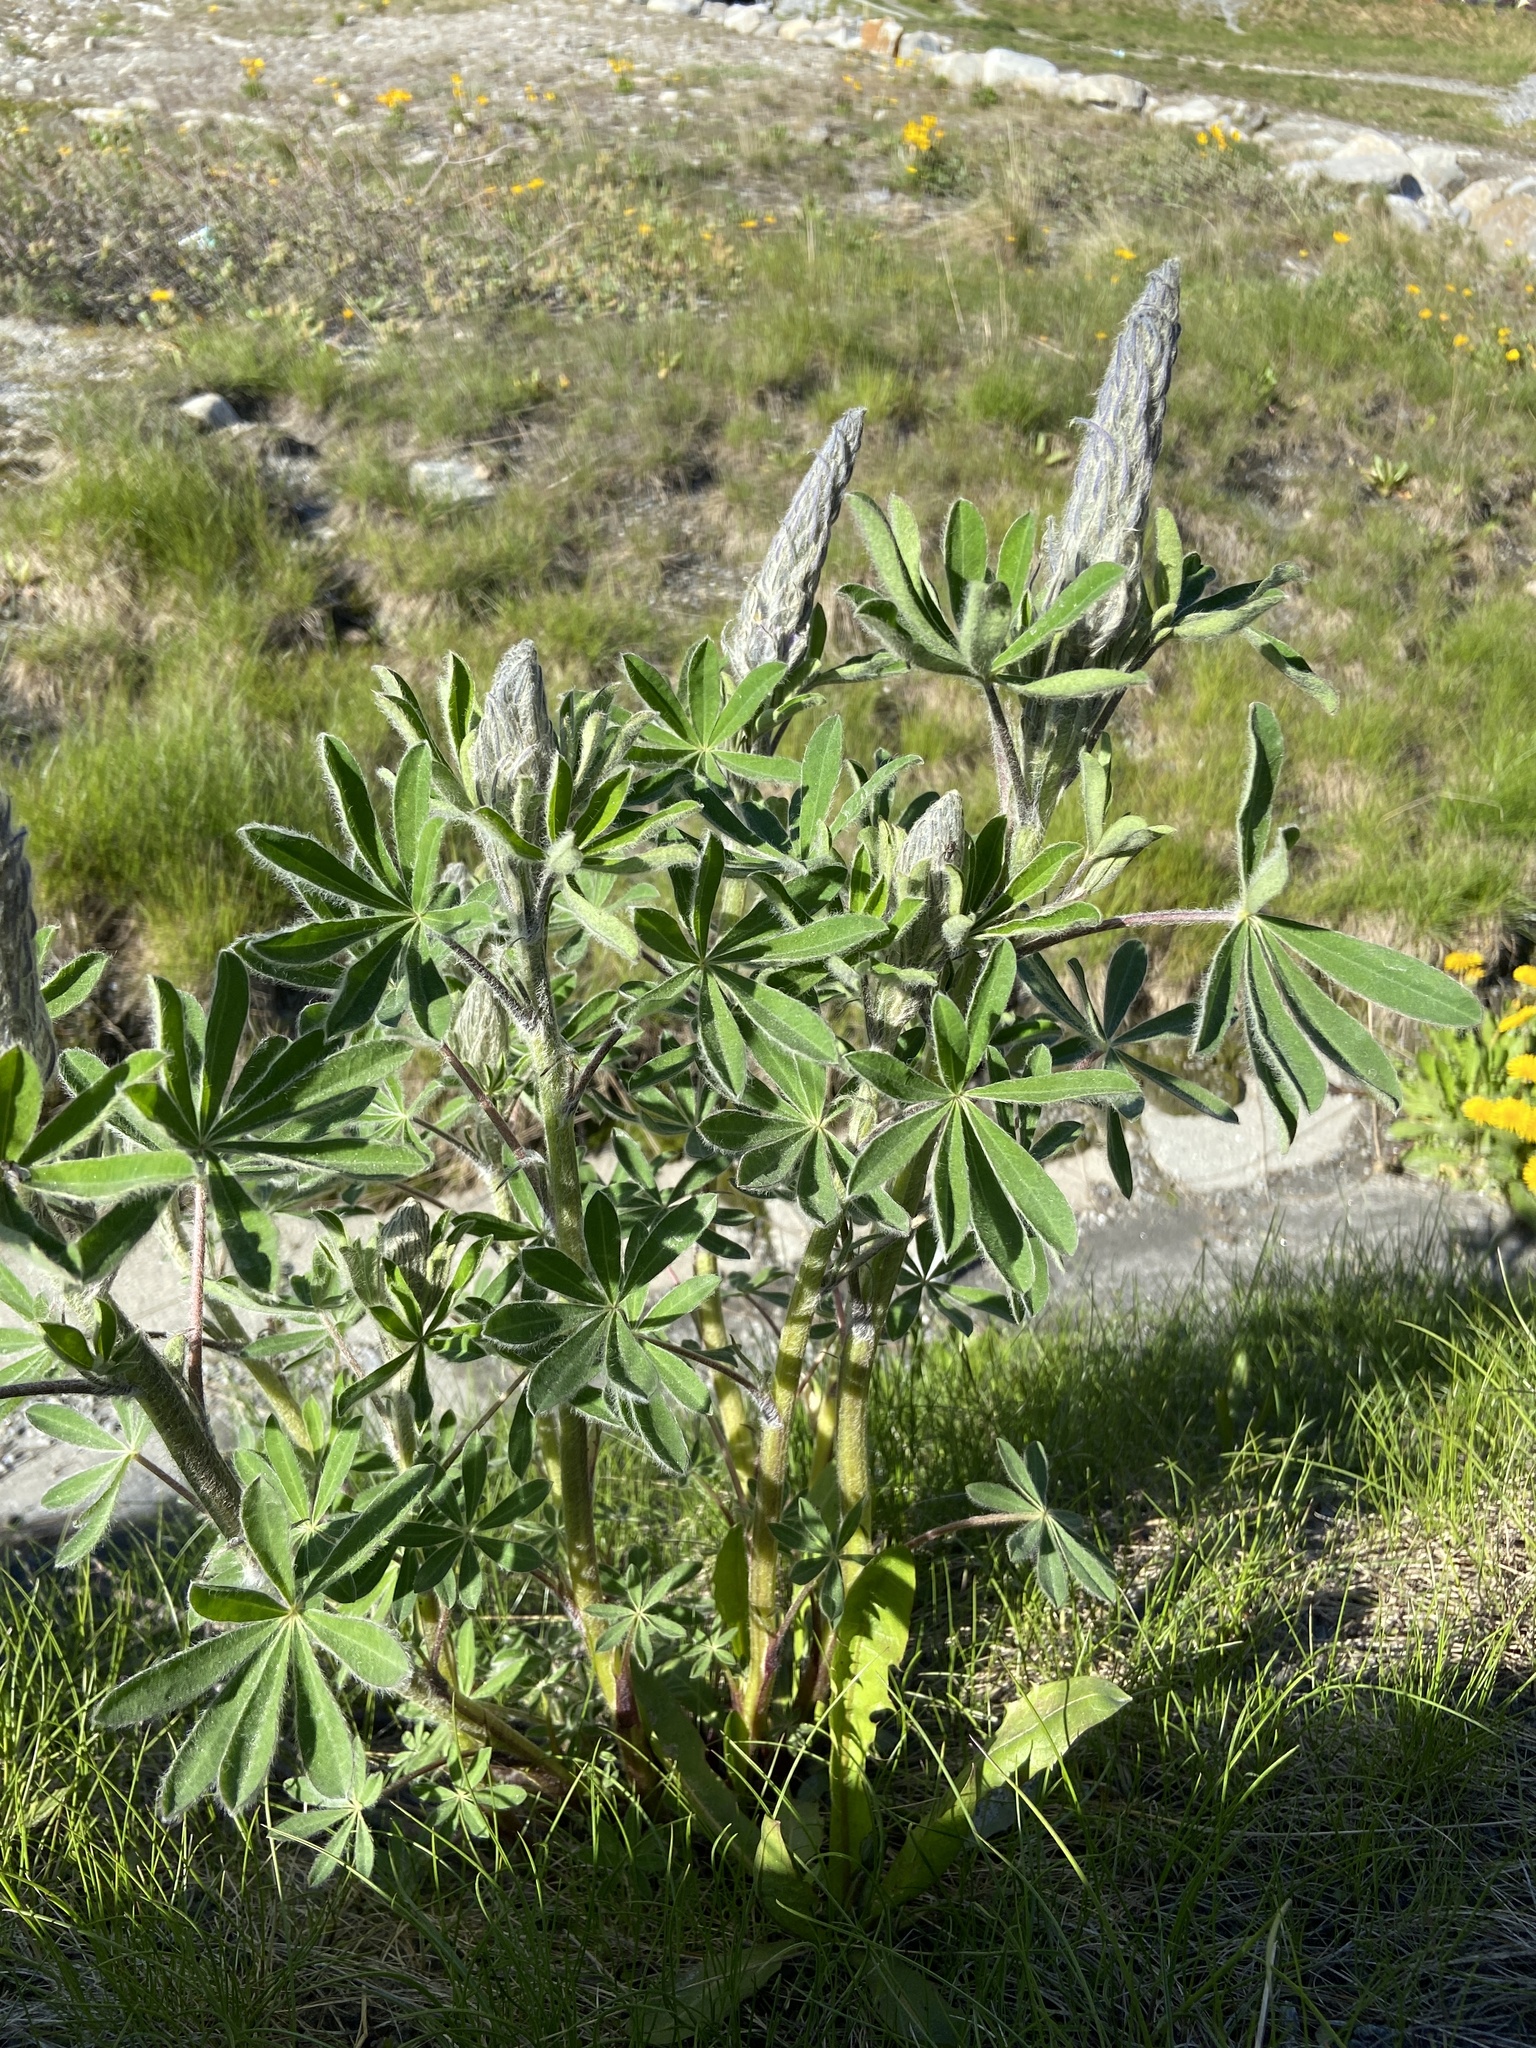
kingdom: Plantae
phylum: Tracheophyta
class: Magnoliopsida
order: Fabales
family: Fabaceae
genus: Lupinus
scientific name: Lupinus nootkatensis
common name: Nootka lupine
